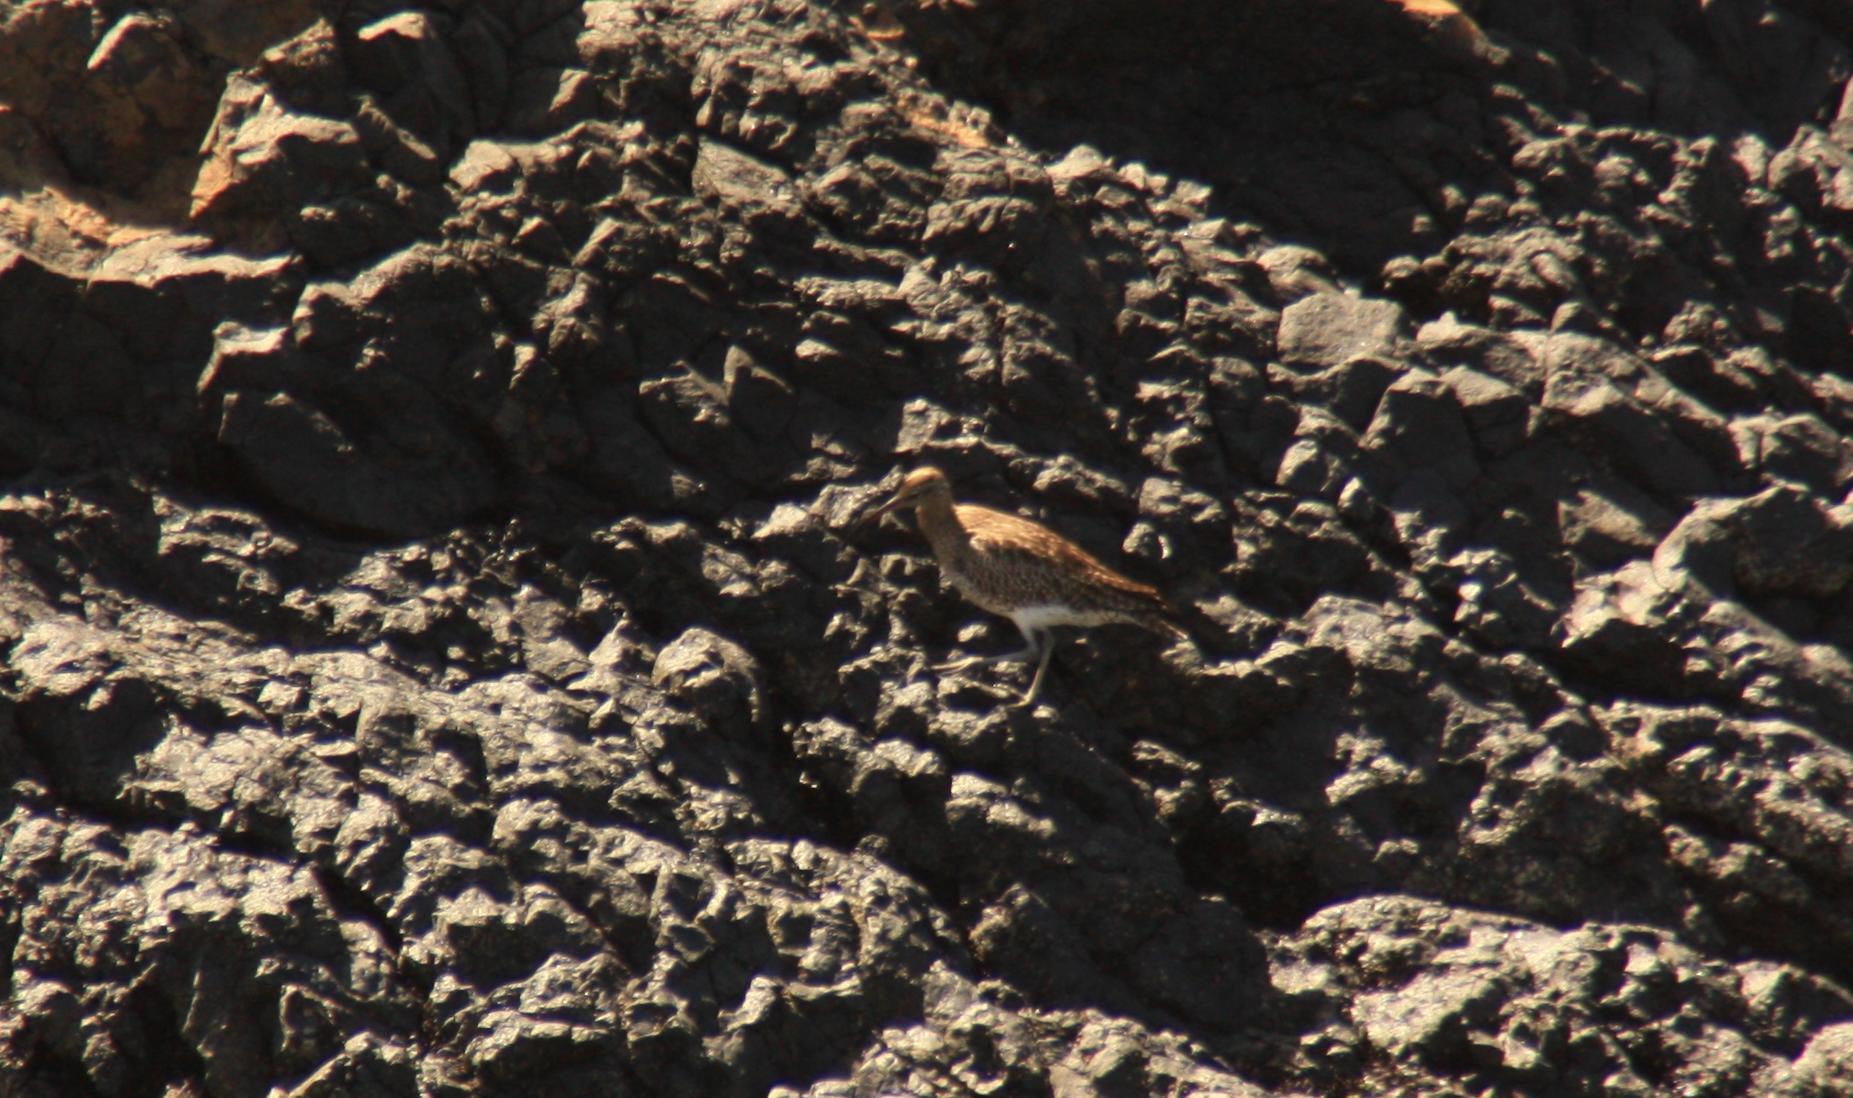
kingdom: Animalia
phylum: Chordata
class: Aves
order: Charadriiformes
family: Scolopacidae
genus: Numenius
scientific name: Numenius phaeopus
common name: Whimbrel
